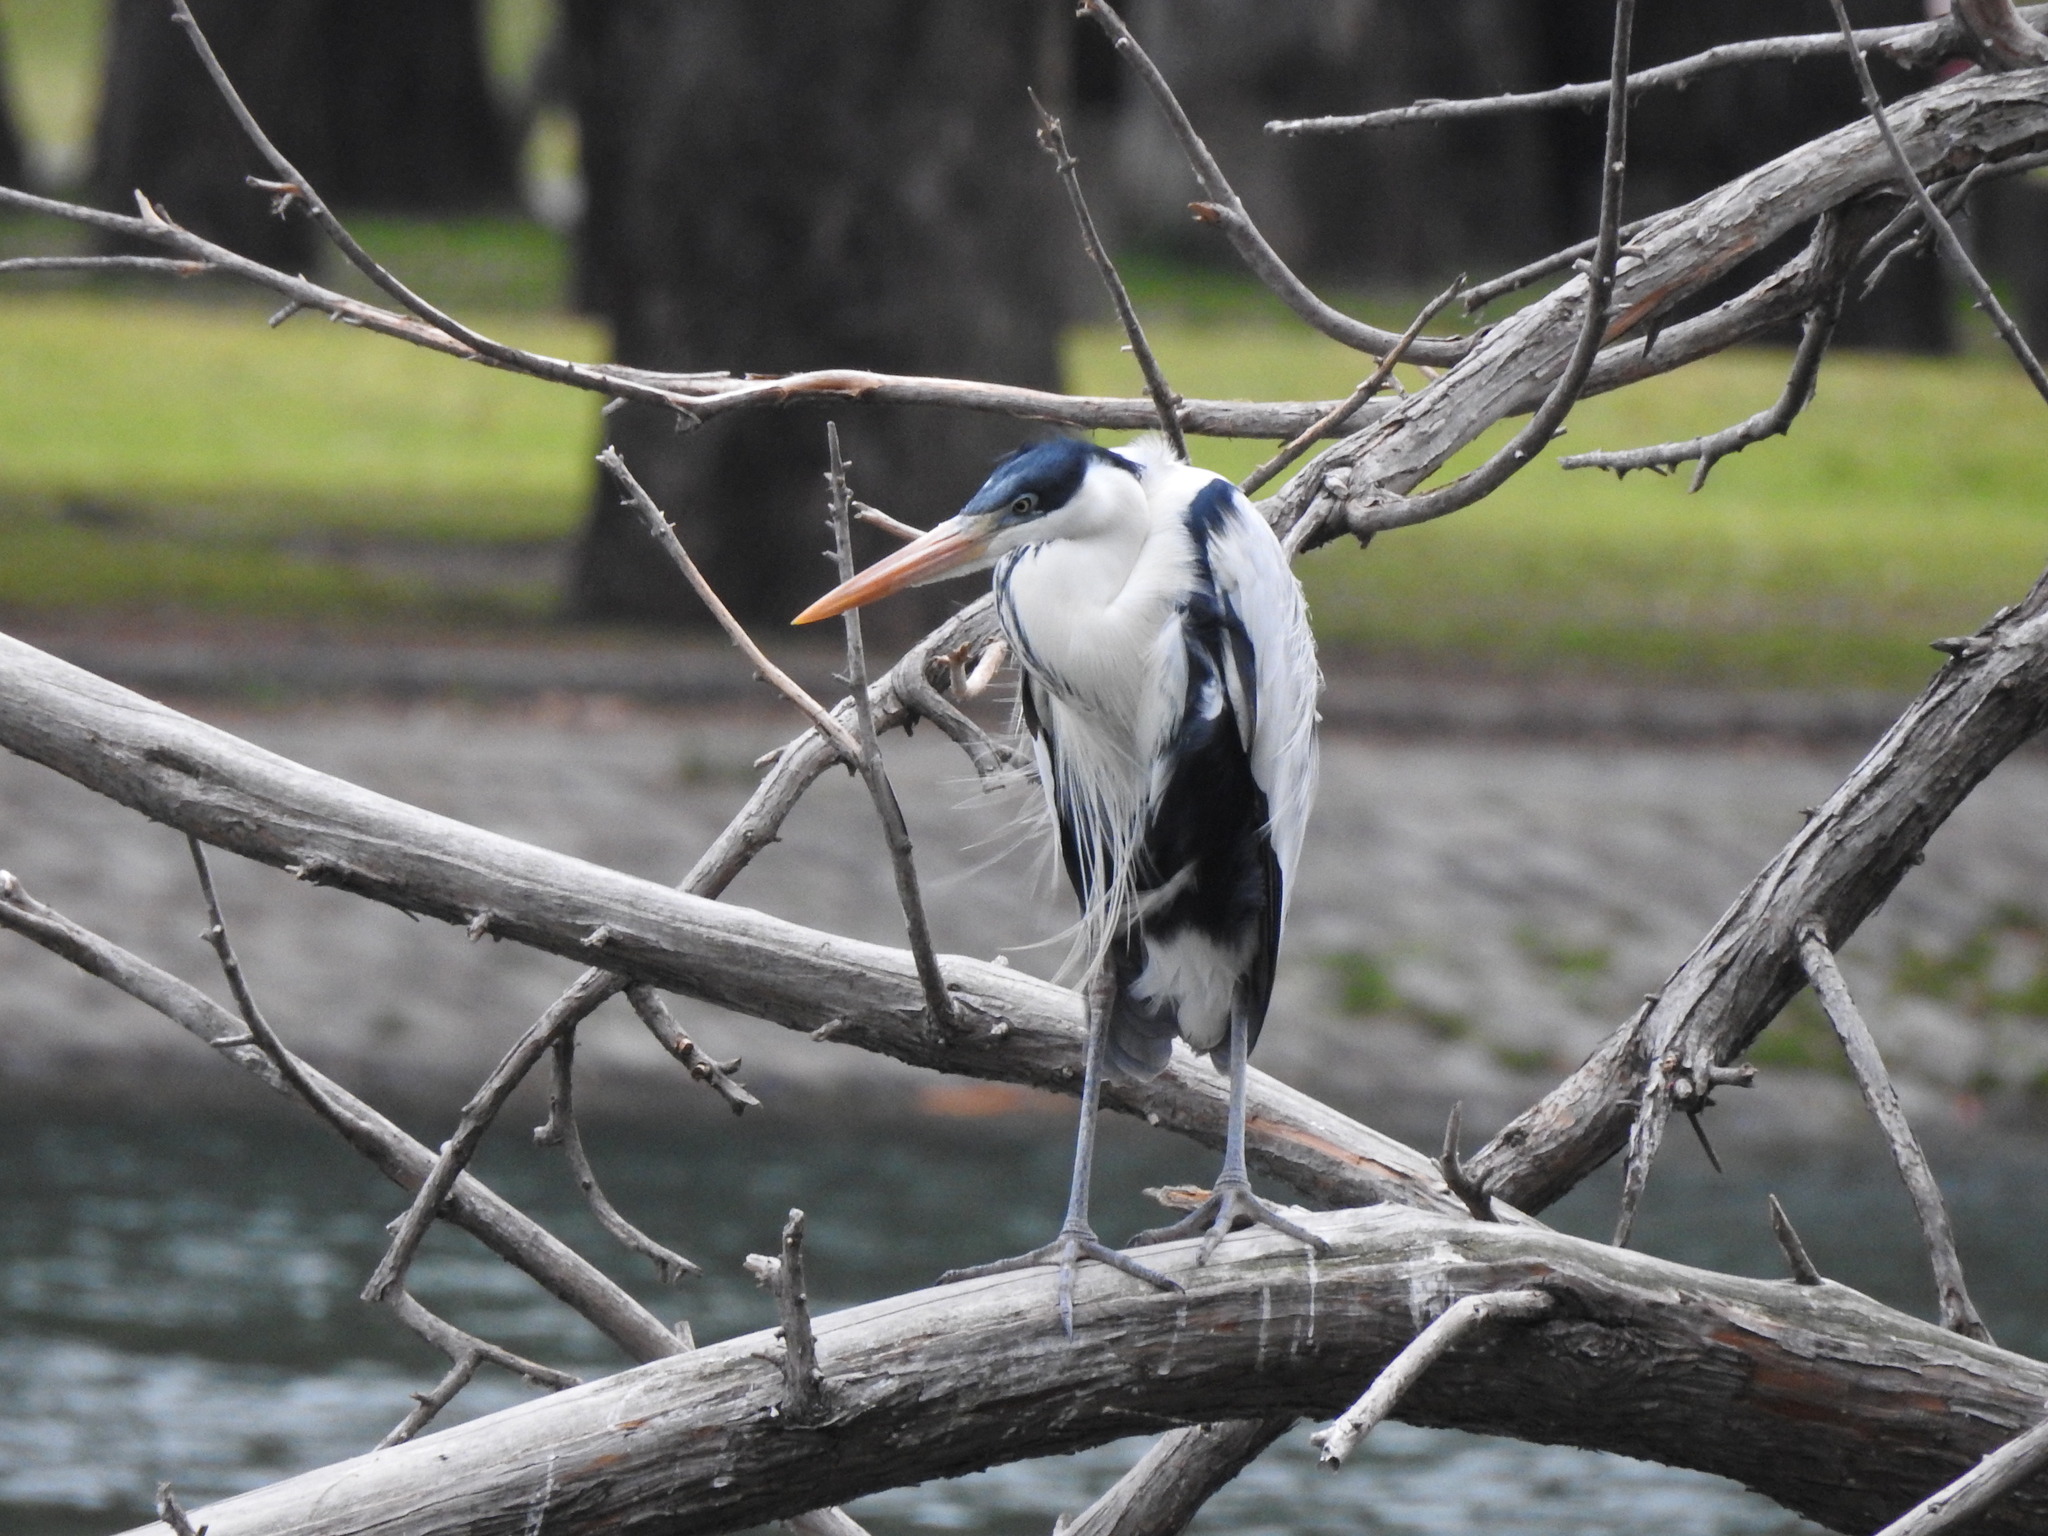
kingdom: Animalia
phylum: Chordata
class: Aves
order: Pelecaniformes
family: Ardeidae
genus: Ardea
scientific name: Ardea cocoi
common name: Cocoi heron
